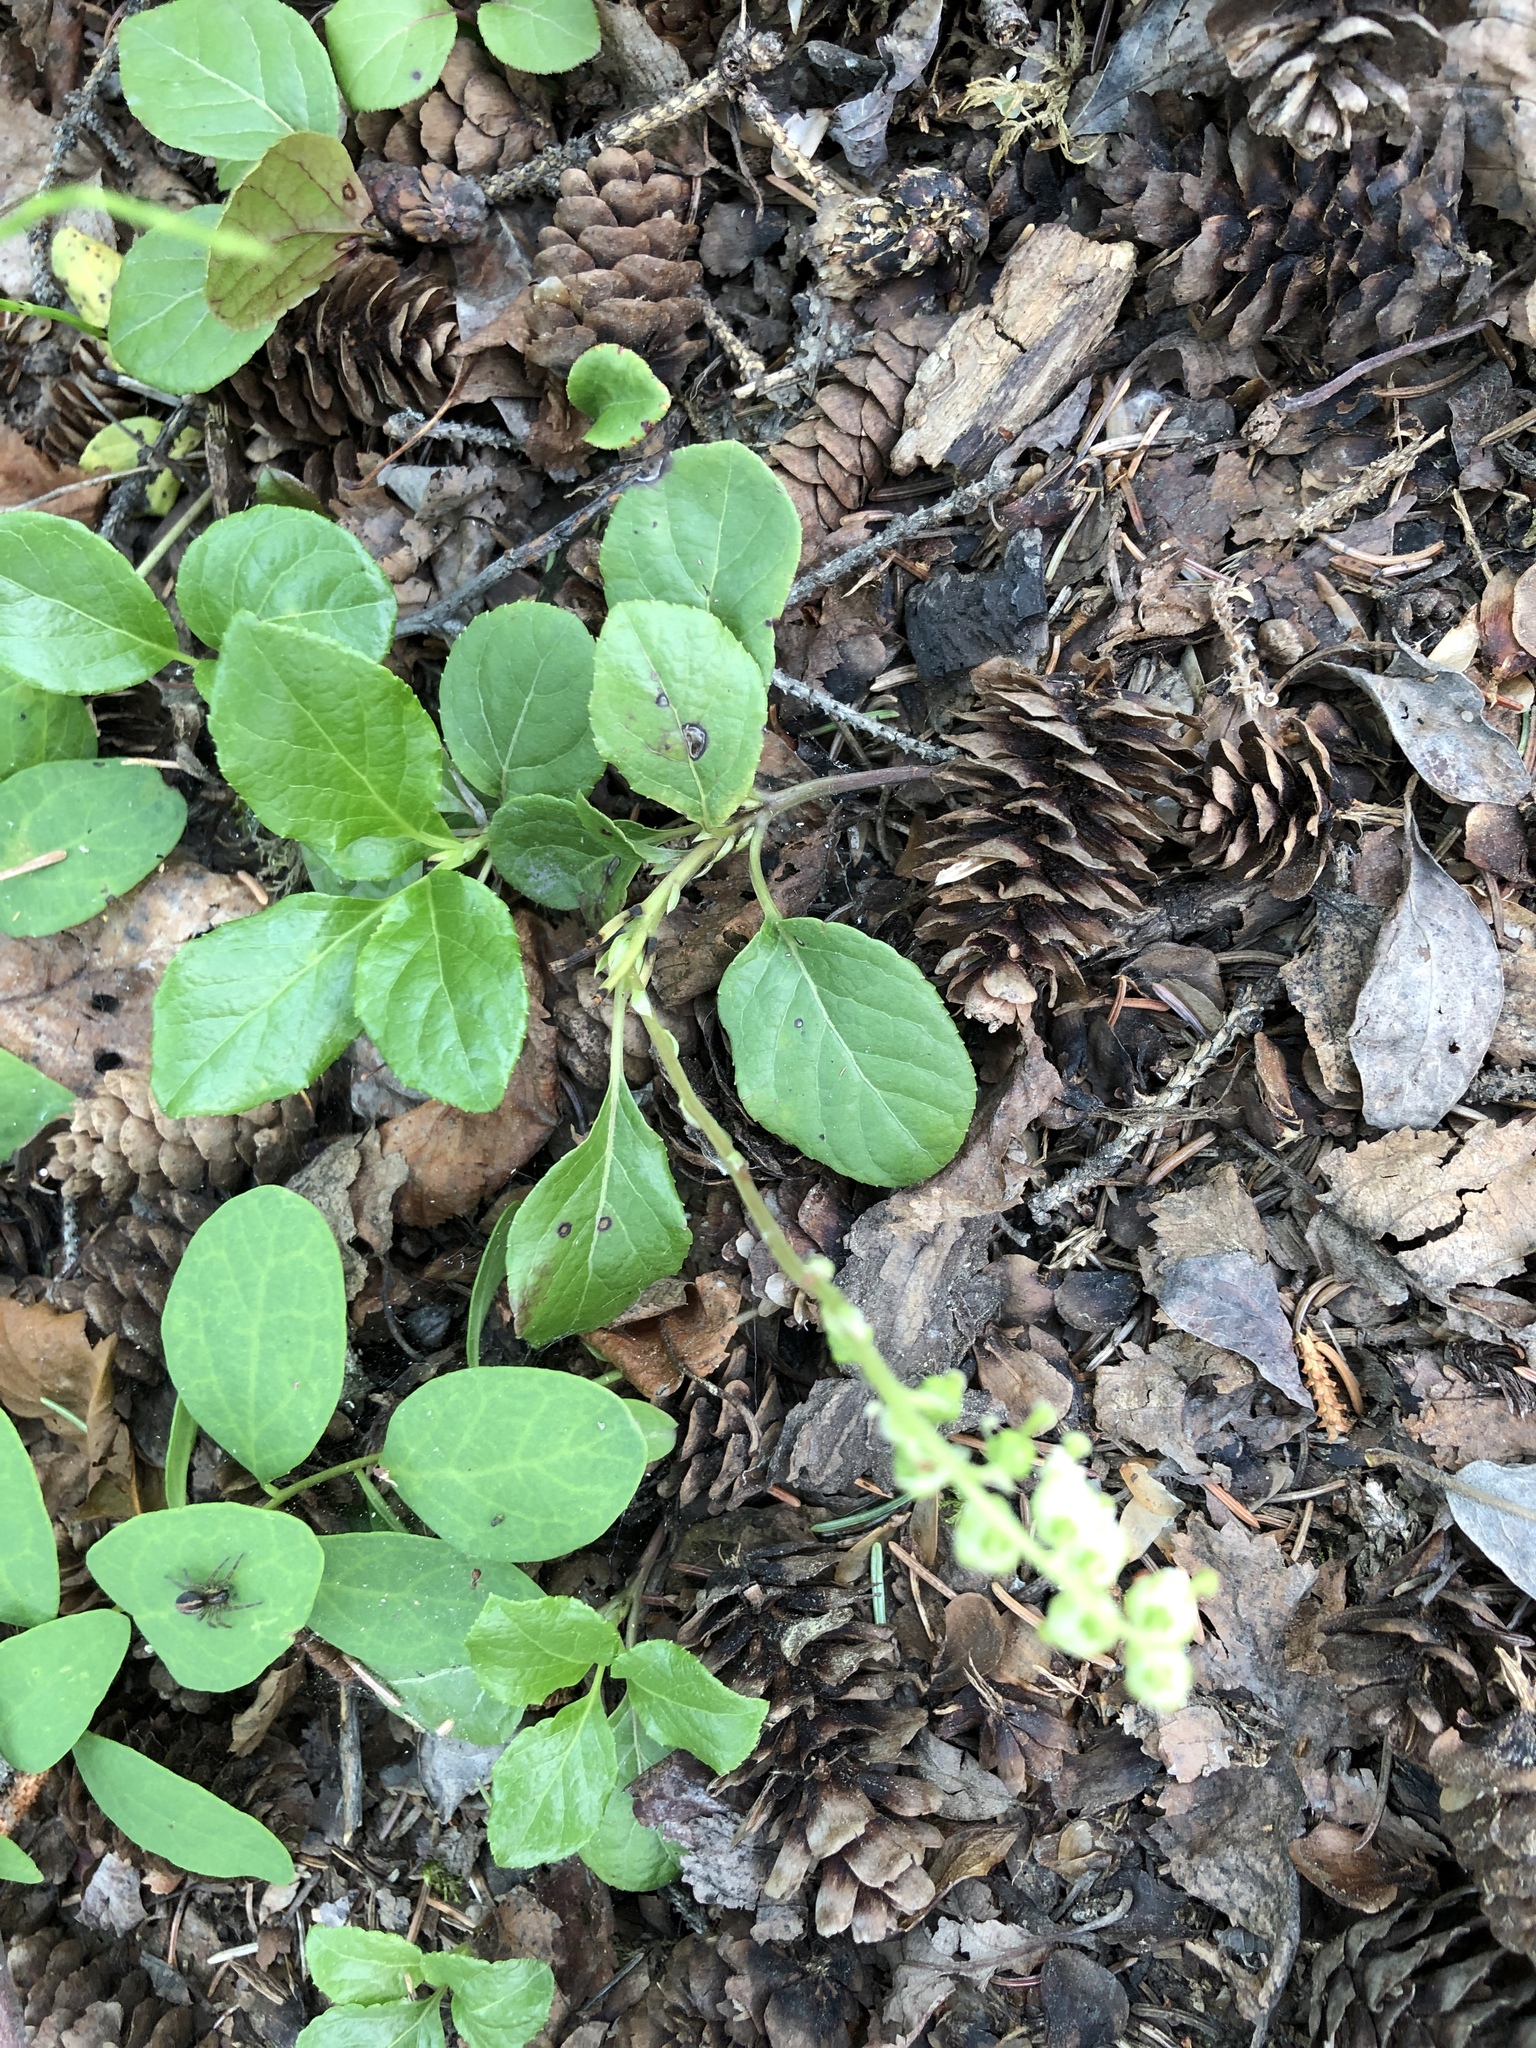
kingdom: Plantae
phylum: Tracheophyta
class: Magnoliopsida
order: Ericales
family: Ericaceae
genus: Orthilia
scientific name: Orthilia secunda
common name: One-sided orthilia
